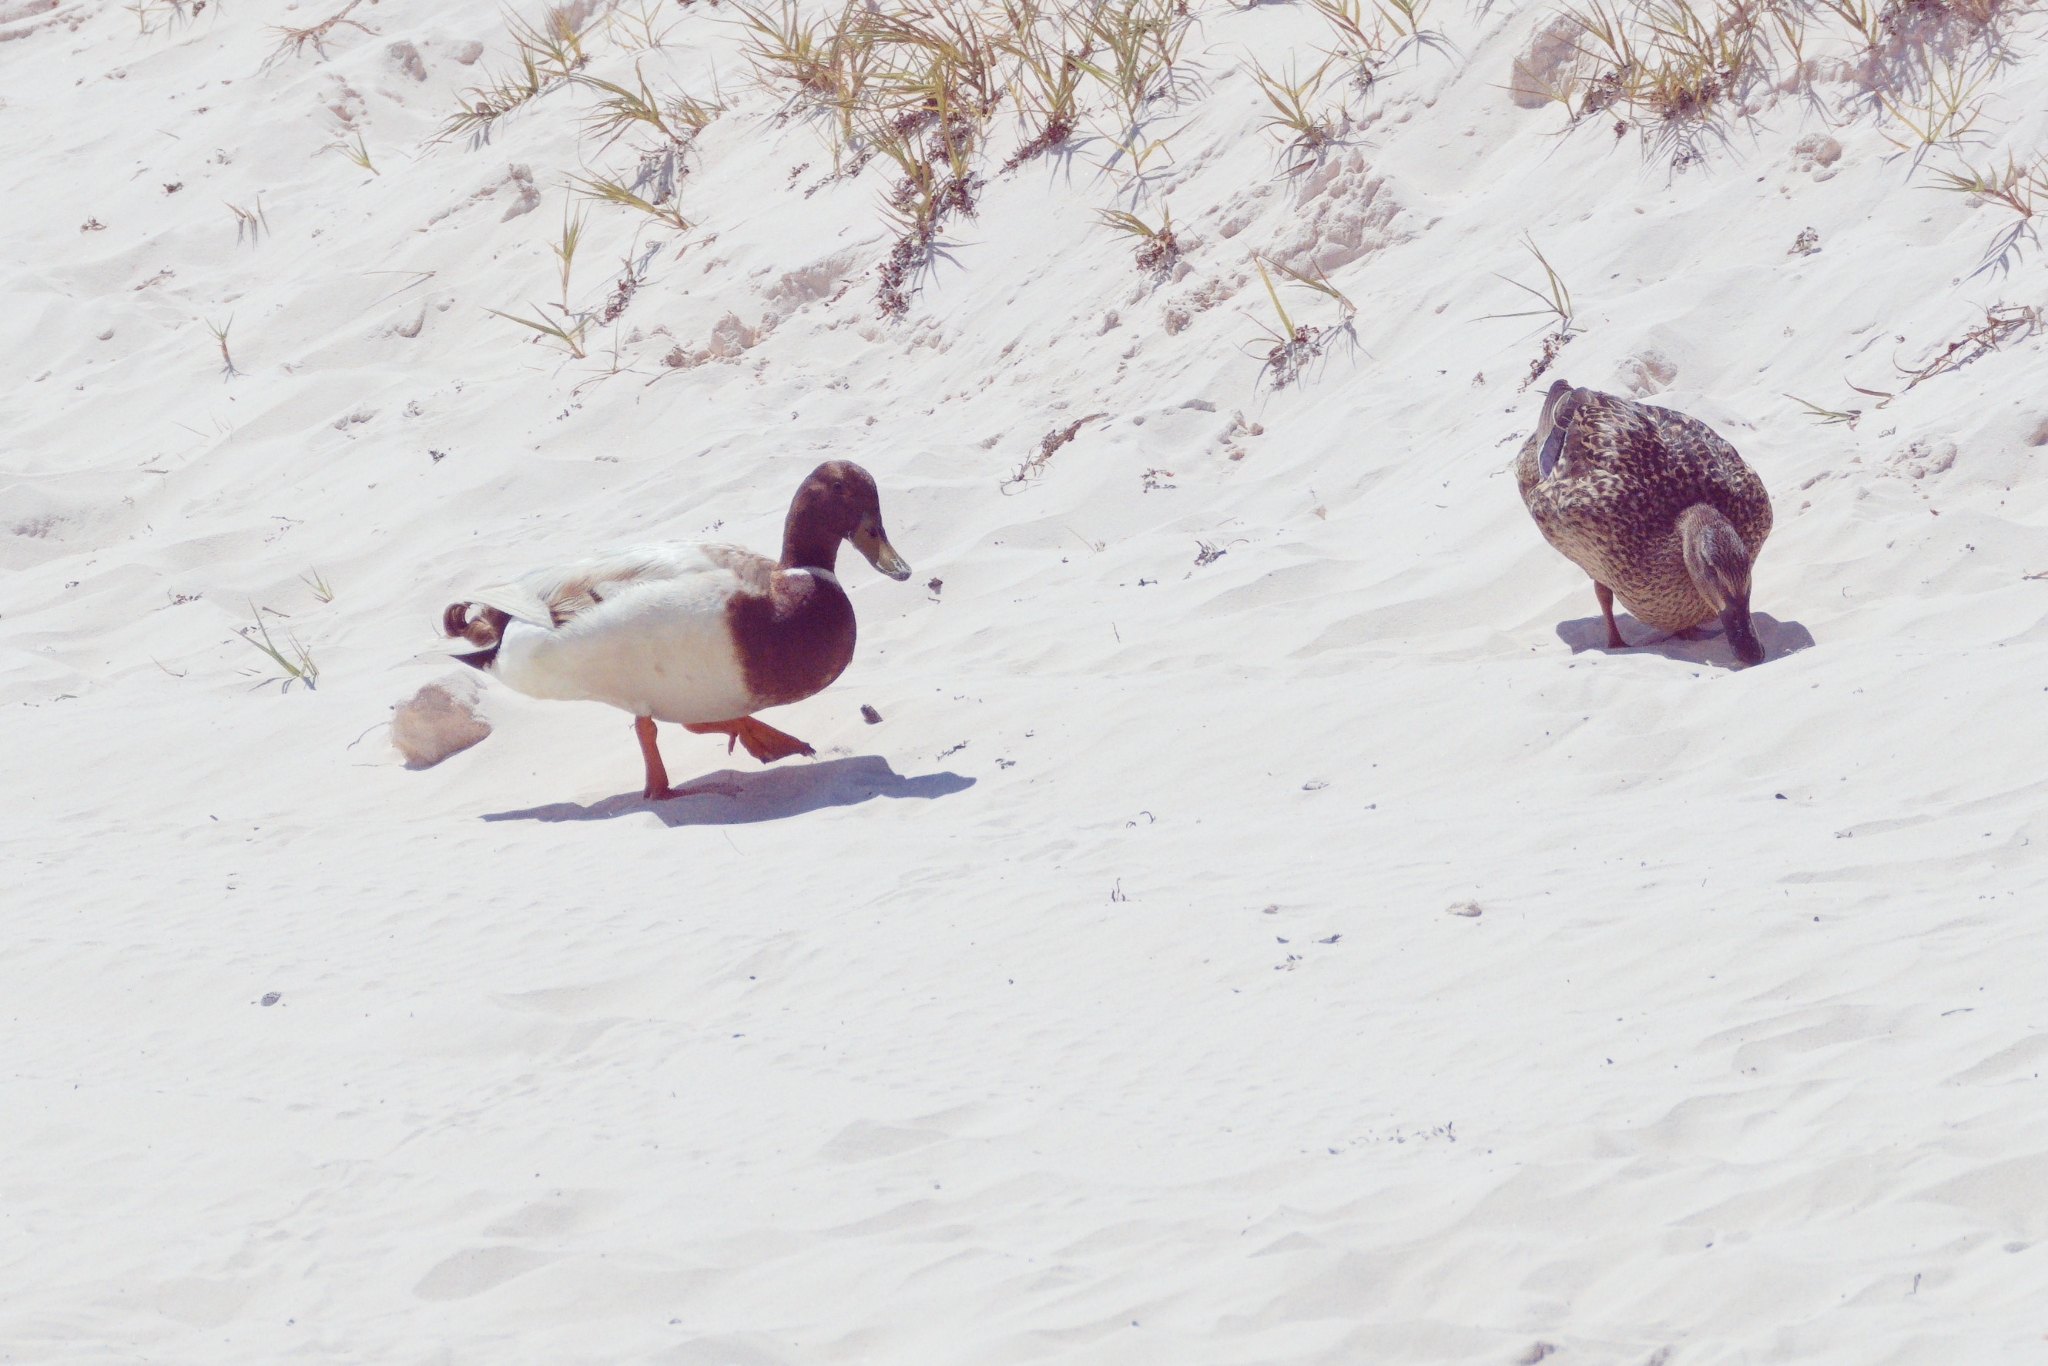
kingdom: Animalia
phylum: Chordata
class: Aves
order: Anseriformes
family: Anatidae
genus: Anas
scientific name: Anas platyrhynchos
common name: Mallard
